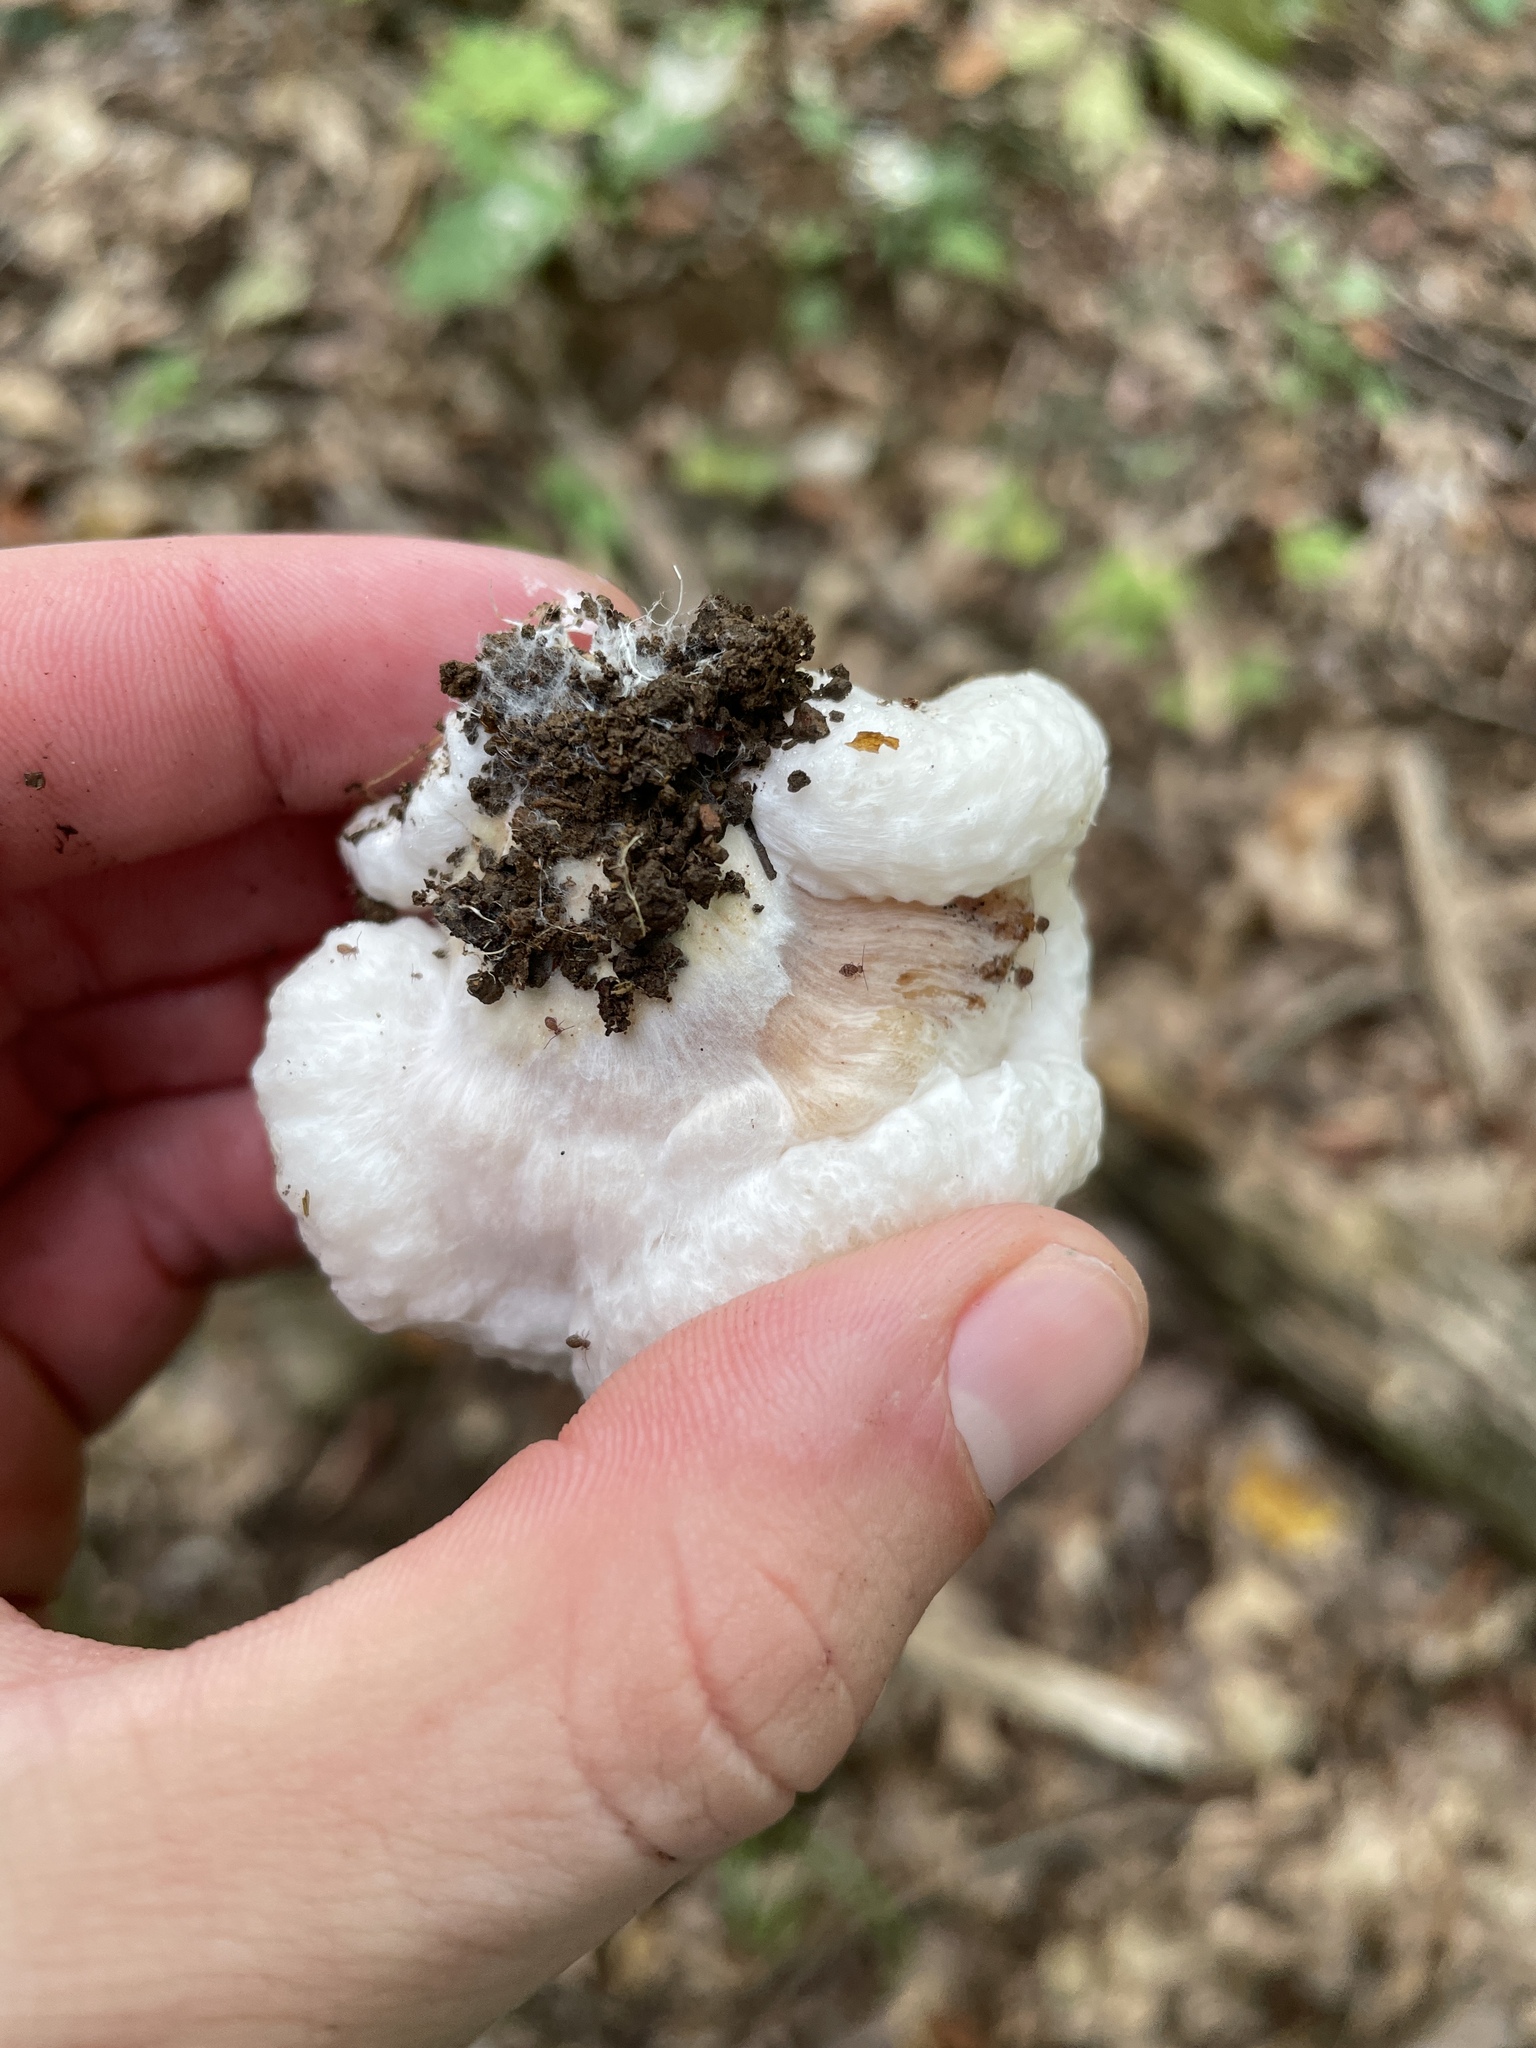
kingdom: Fungi
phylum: Basidiomycota
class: Agaricomycetes
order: Agaricales
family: Entolomataceae
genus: Entoloma
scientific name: Entoloma abortivum
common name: Aborted entoloma
